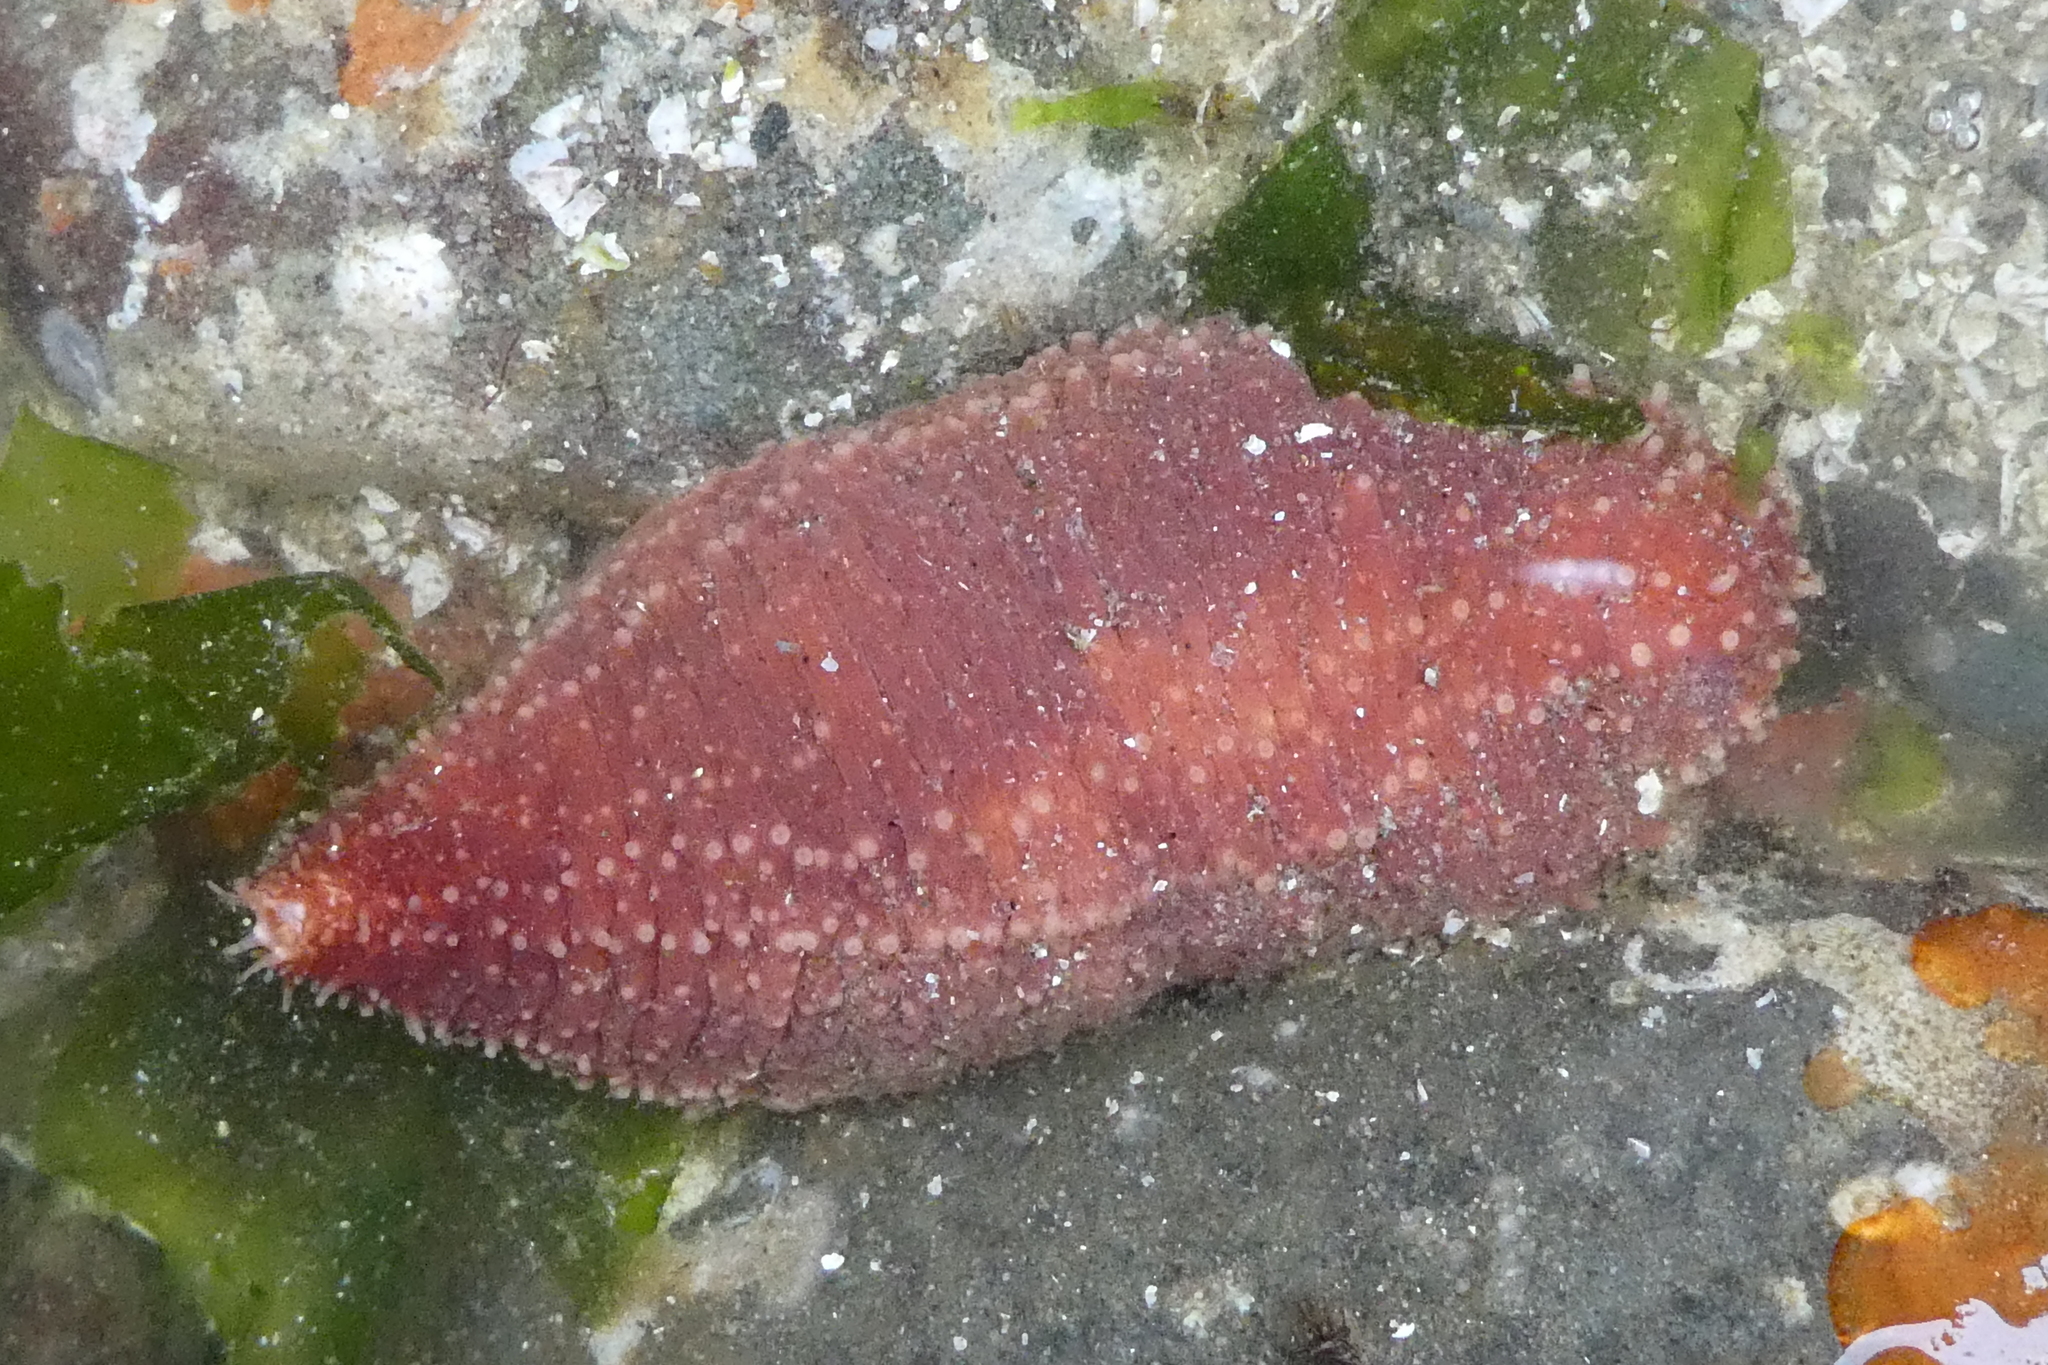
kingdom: Animalia
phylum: Echinodermata
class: Holothuroidea
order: Dendrochirotida
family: Cucumariidae
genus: Cucumaria
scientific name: Cucumaria miniata
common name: Orange sea cucumber
